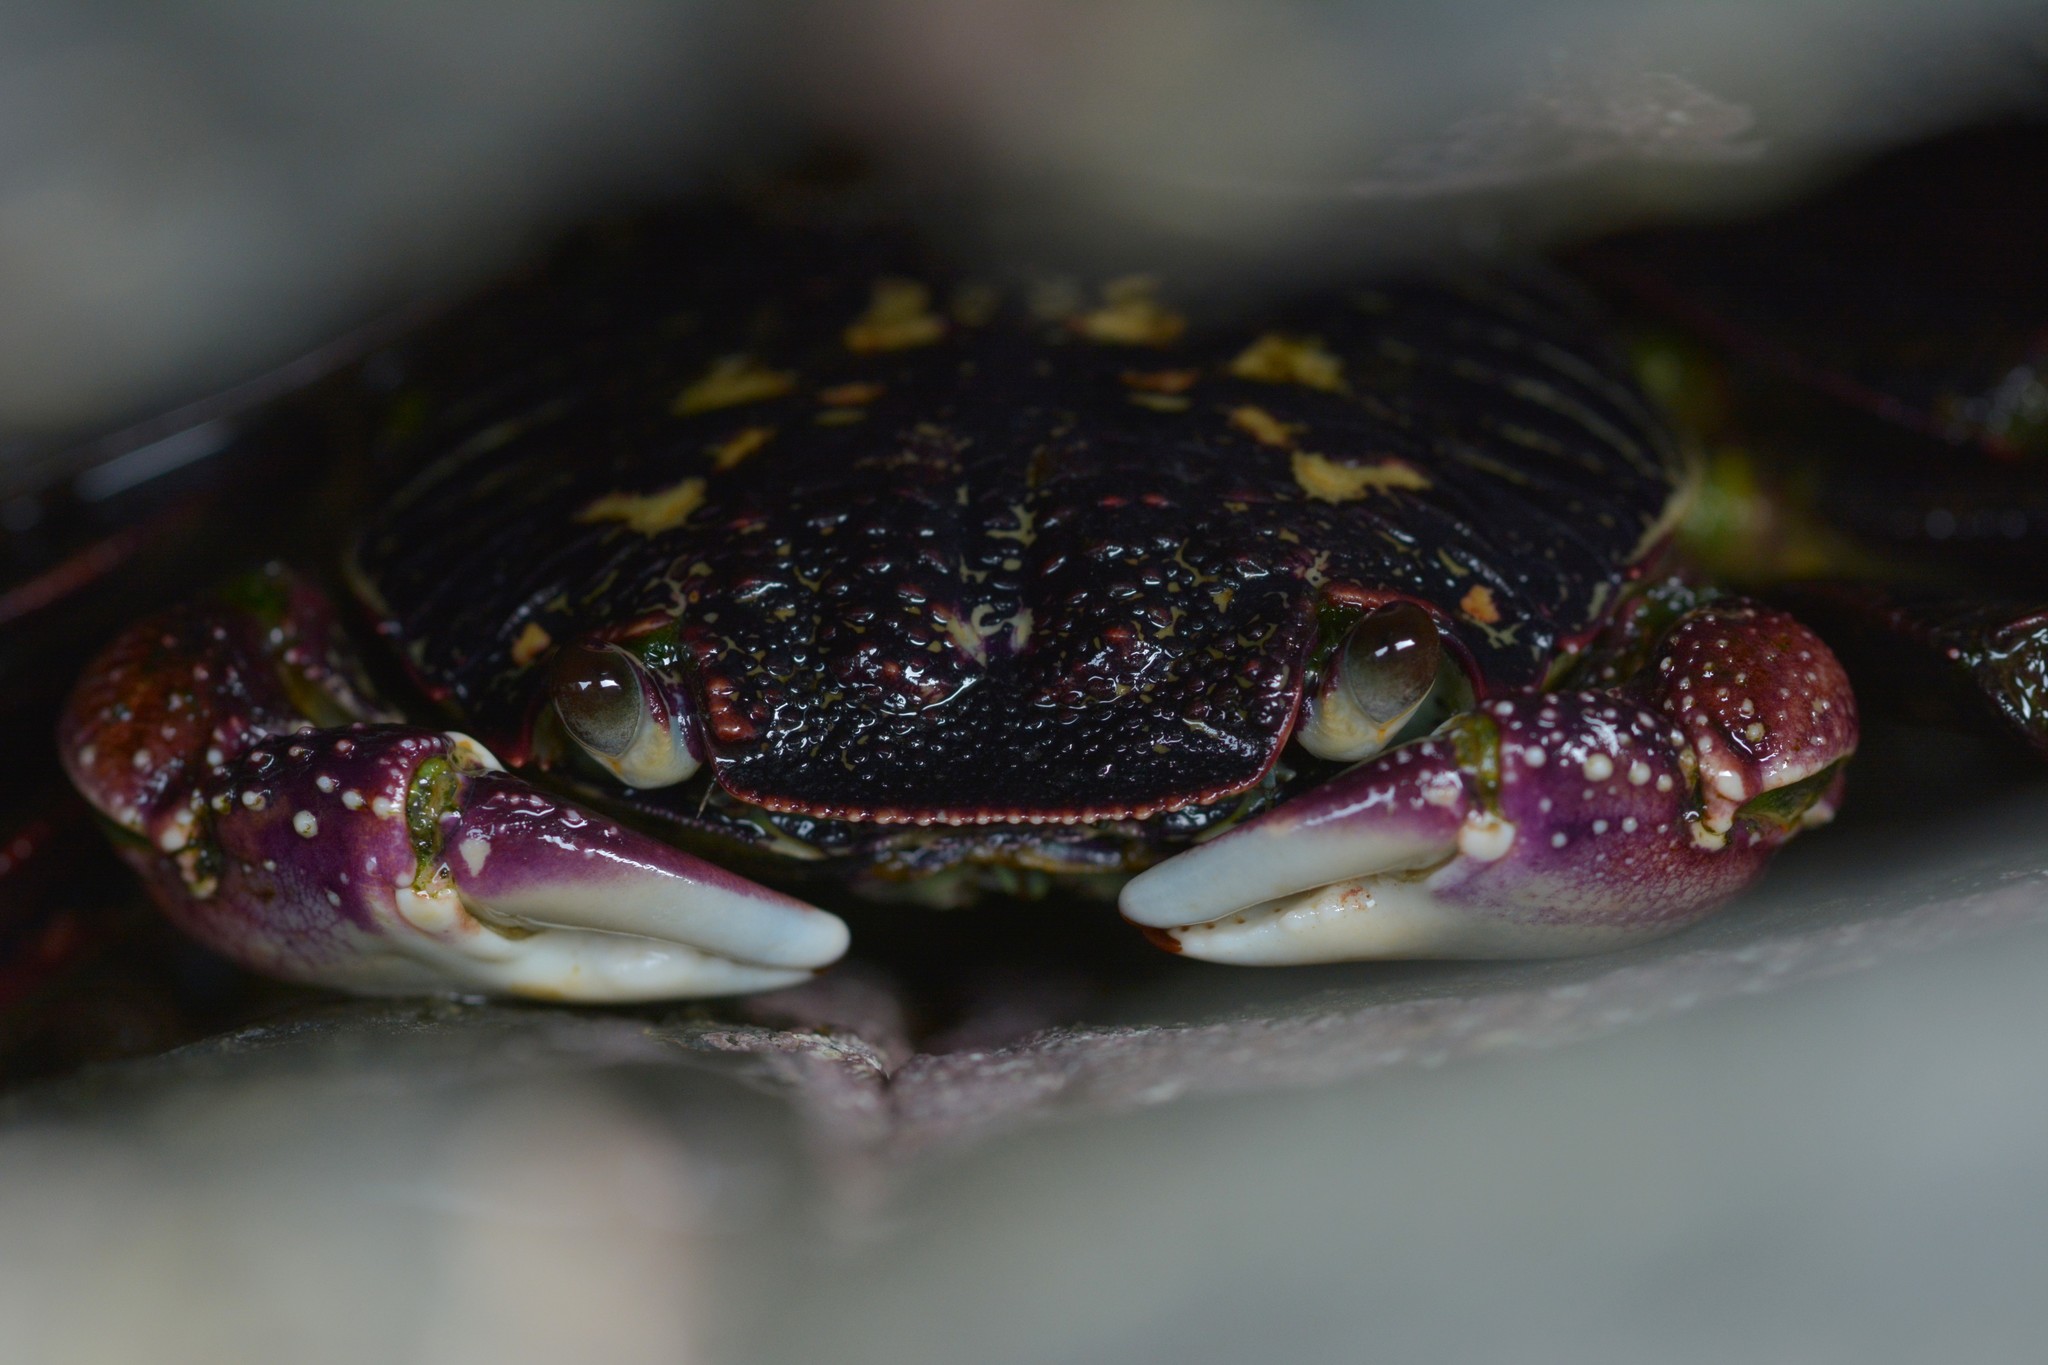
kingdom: Animalia
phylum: Arthropoda
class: Malacostraca
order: Decapoda
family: Grapsidae
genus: Leptograpsus
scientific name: Leptograpsus variegatus
